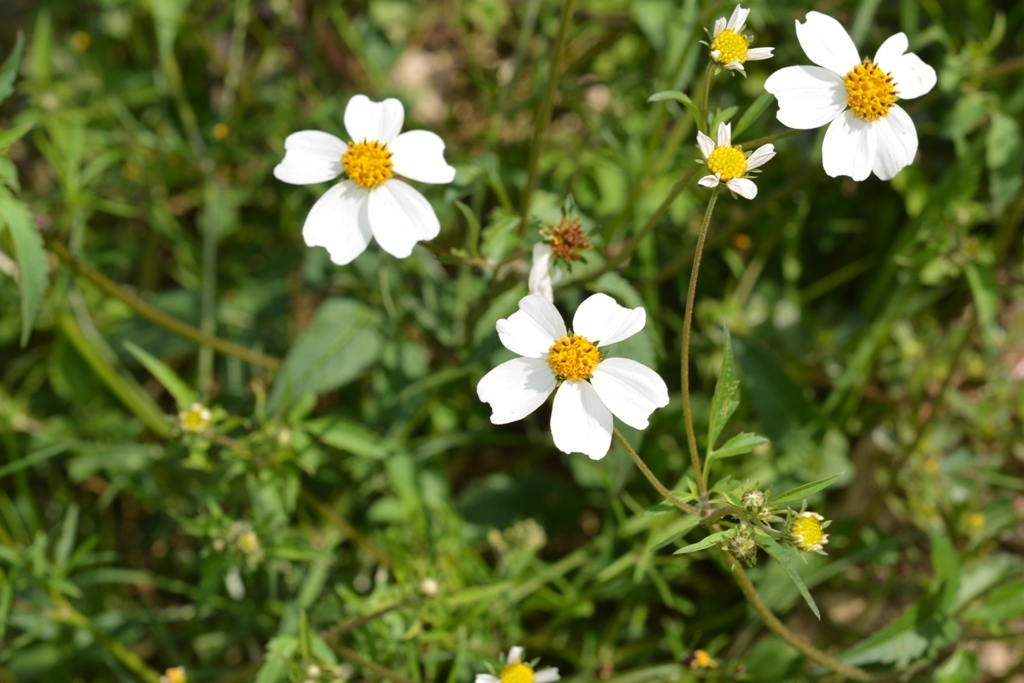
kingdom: Plantae
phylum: Tracheophyta
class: Magnoliopsida
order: Asterales
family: Asteraceae
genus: Bidens
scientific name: Bidens odorata
